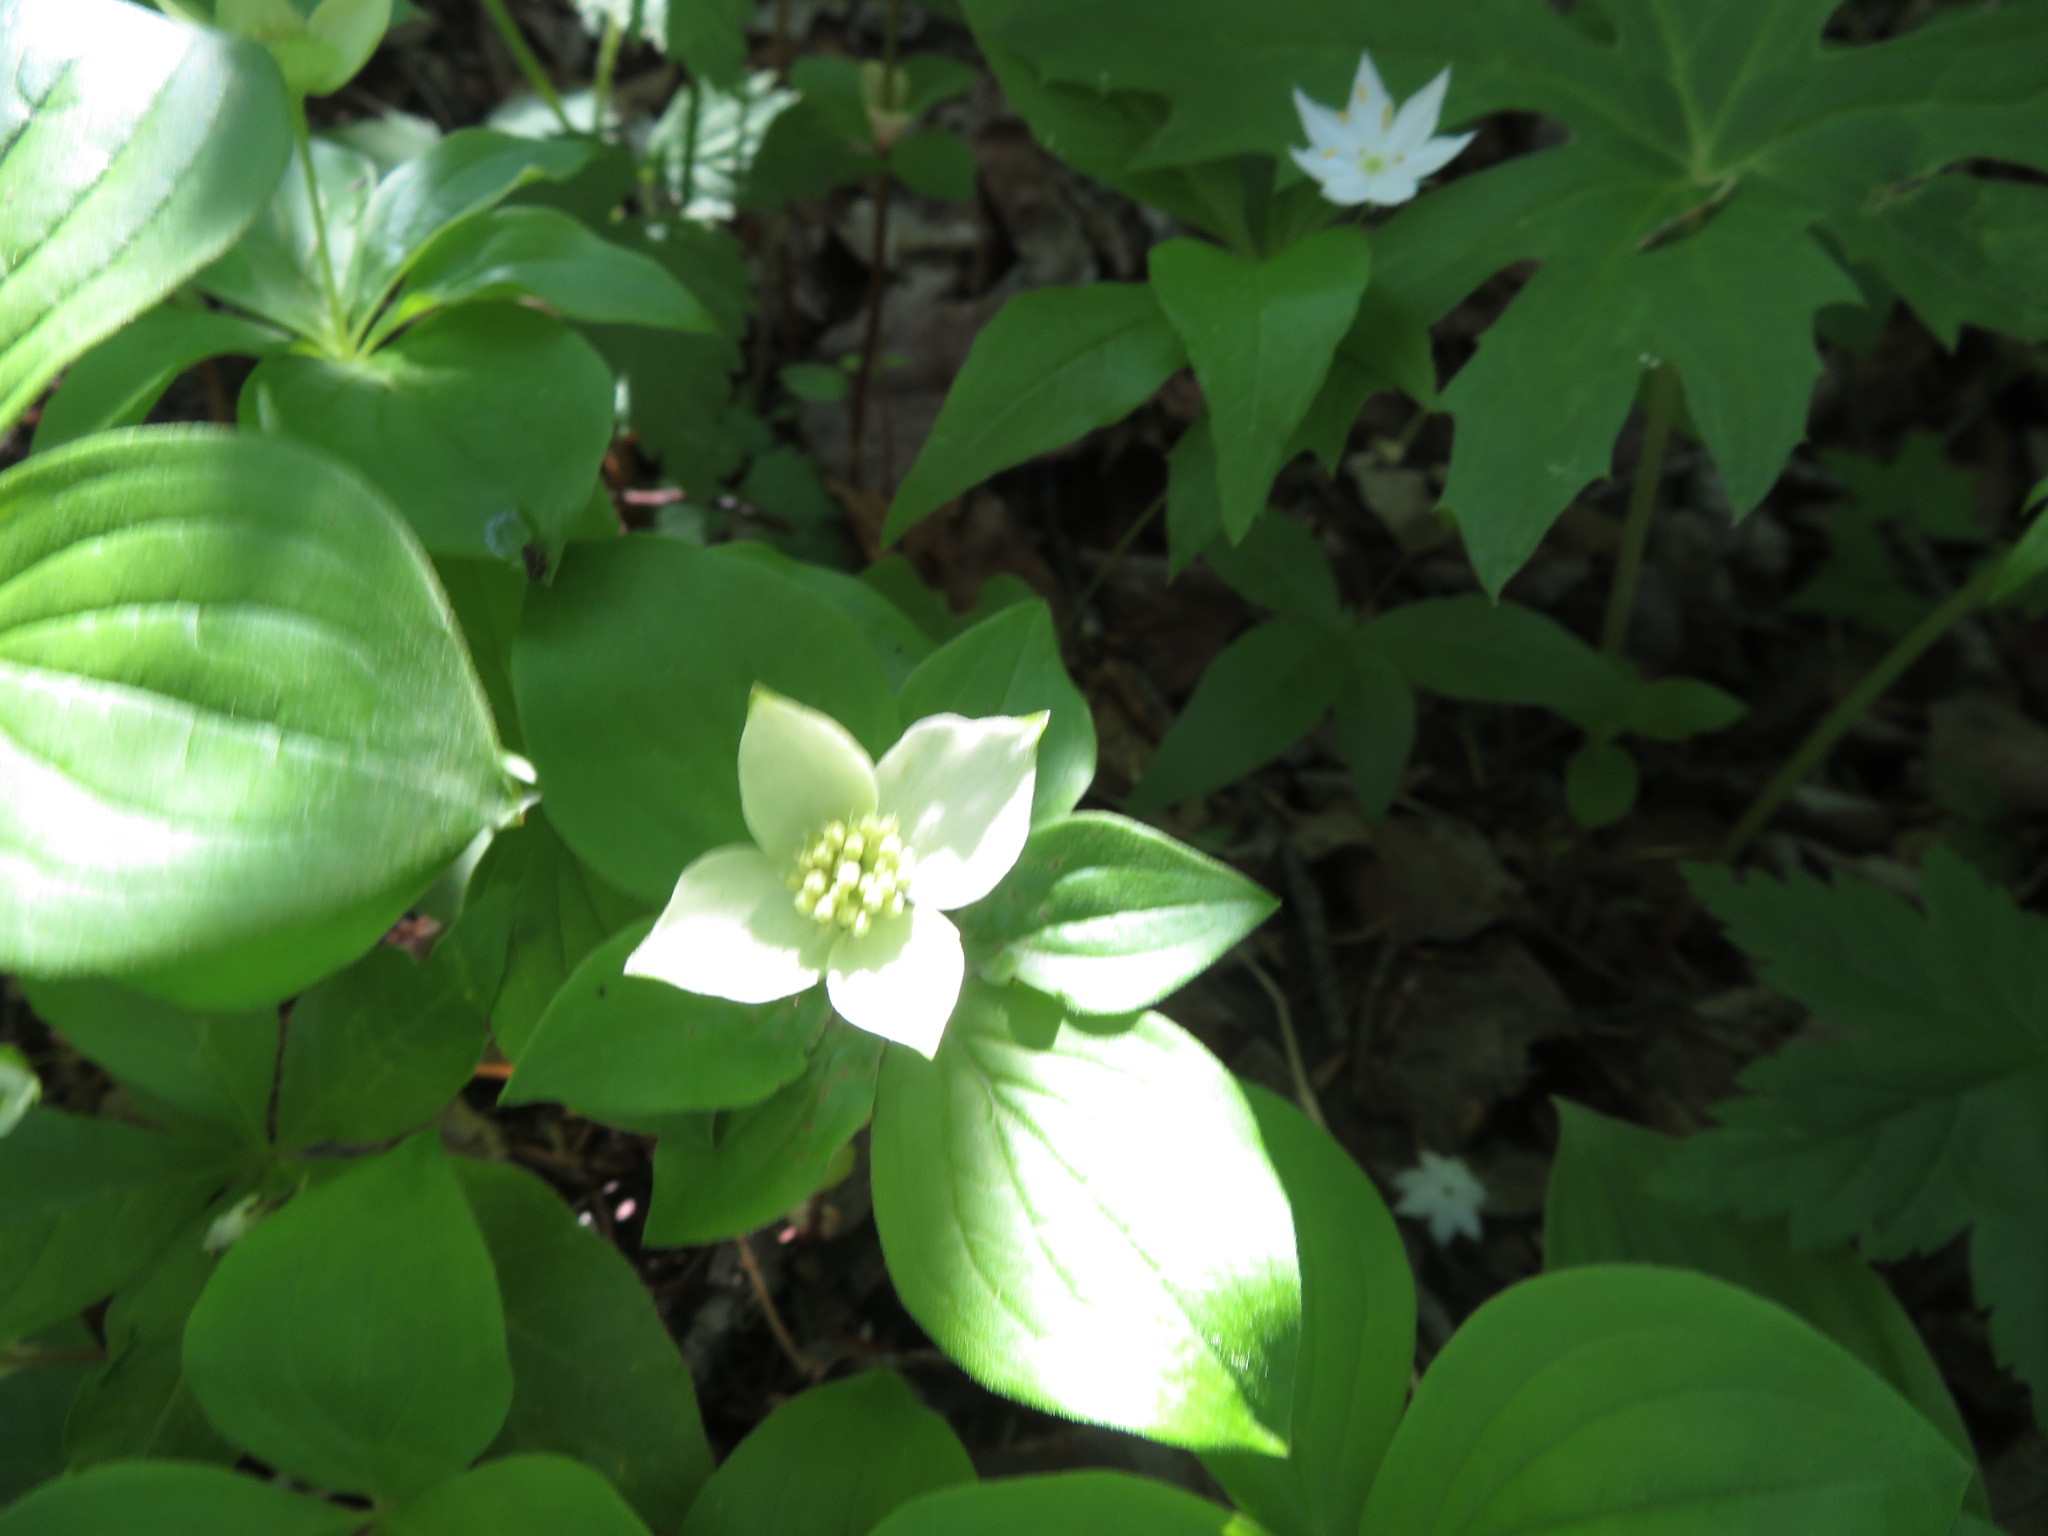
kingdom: Plantae
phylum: Tracheophyta
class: Magnoliopsida
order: Cornales
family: Cornaceae
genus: Cornus
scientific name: Cornus canadensis
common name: Creeping dogwood
